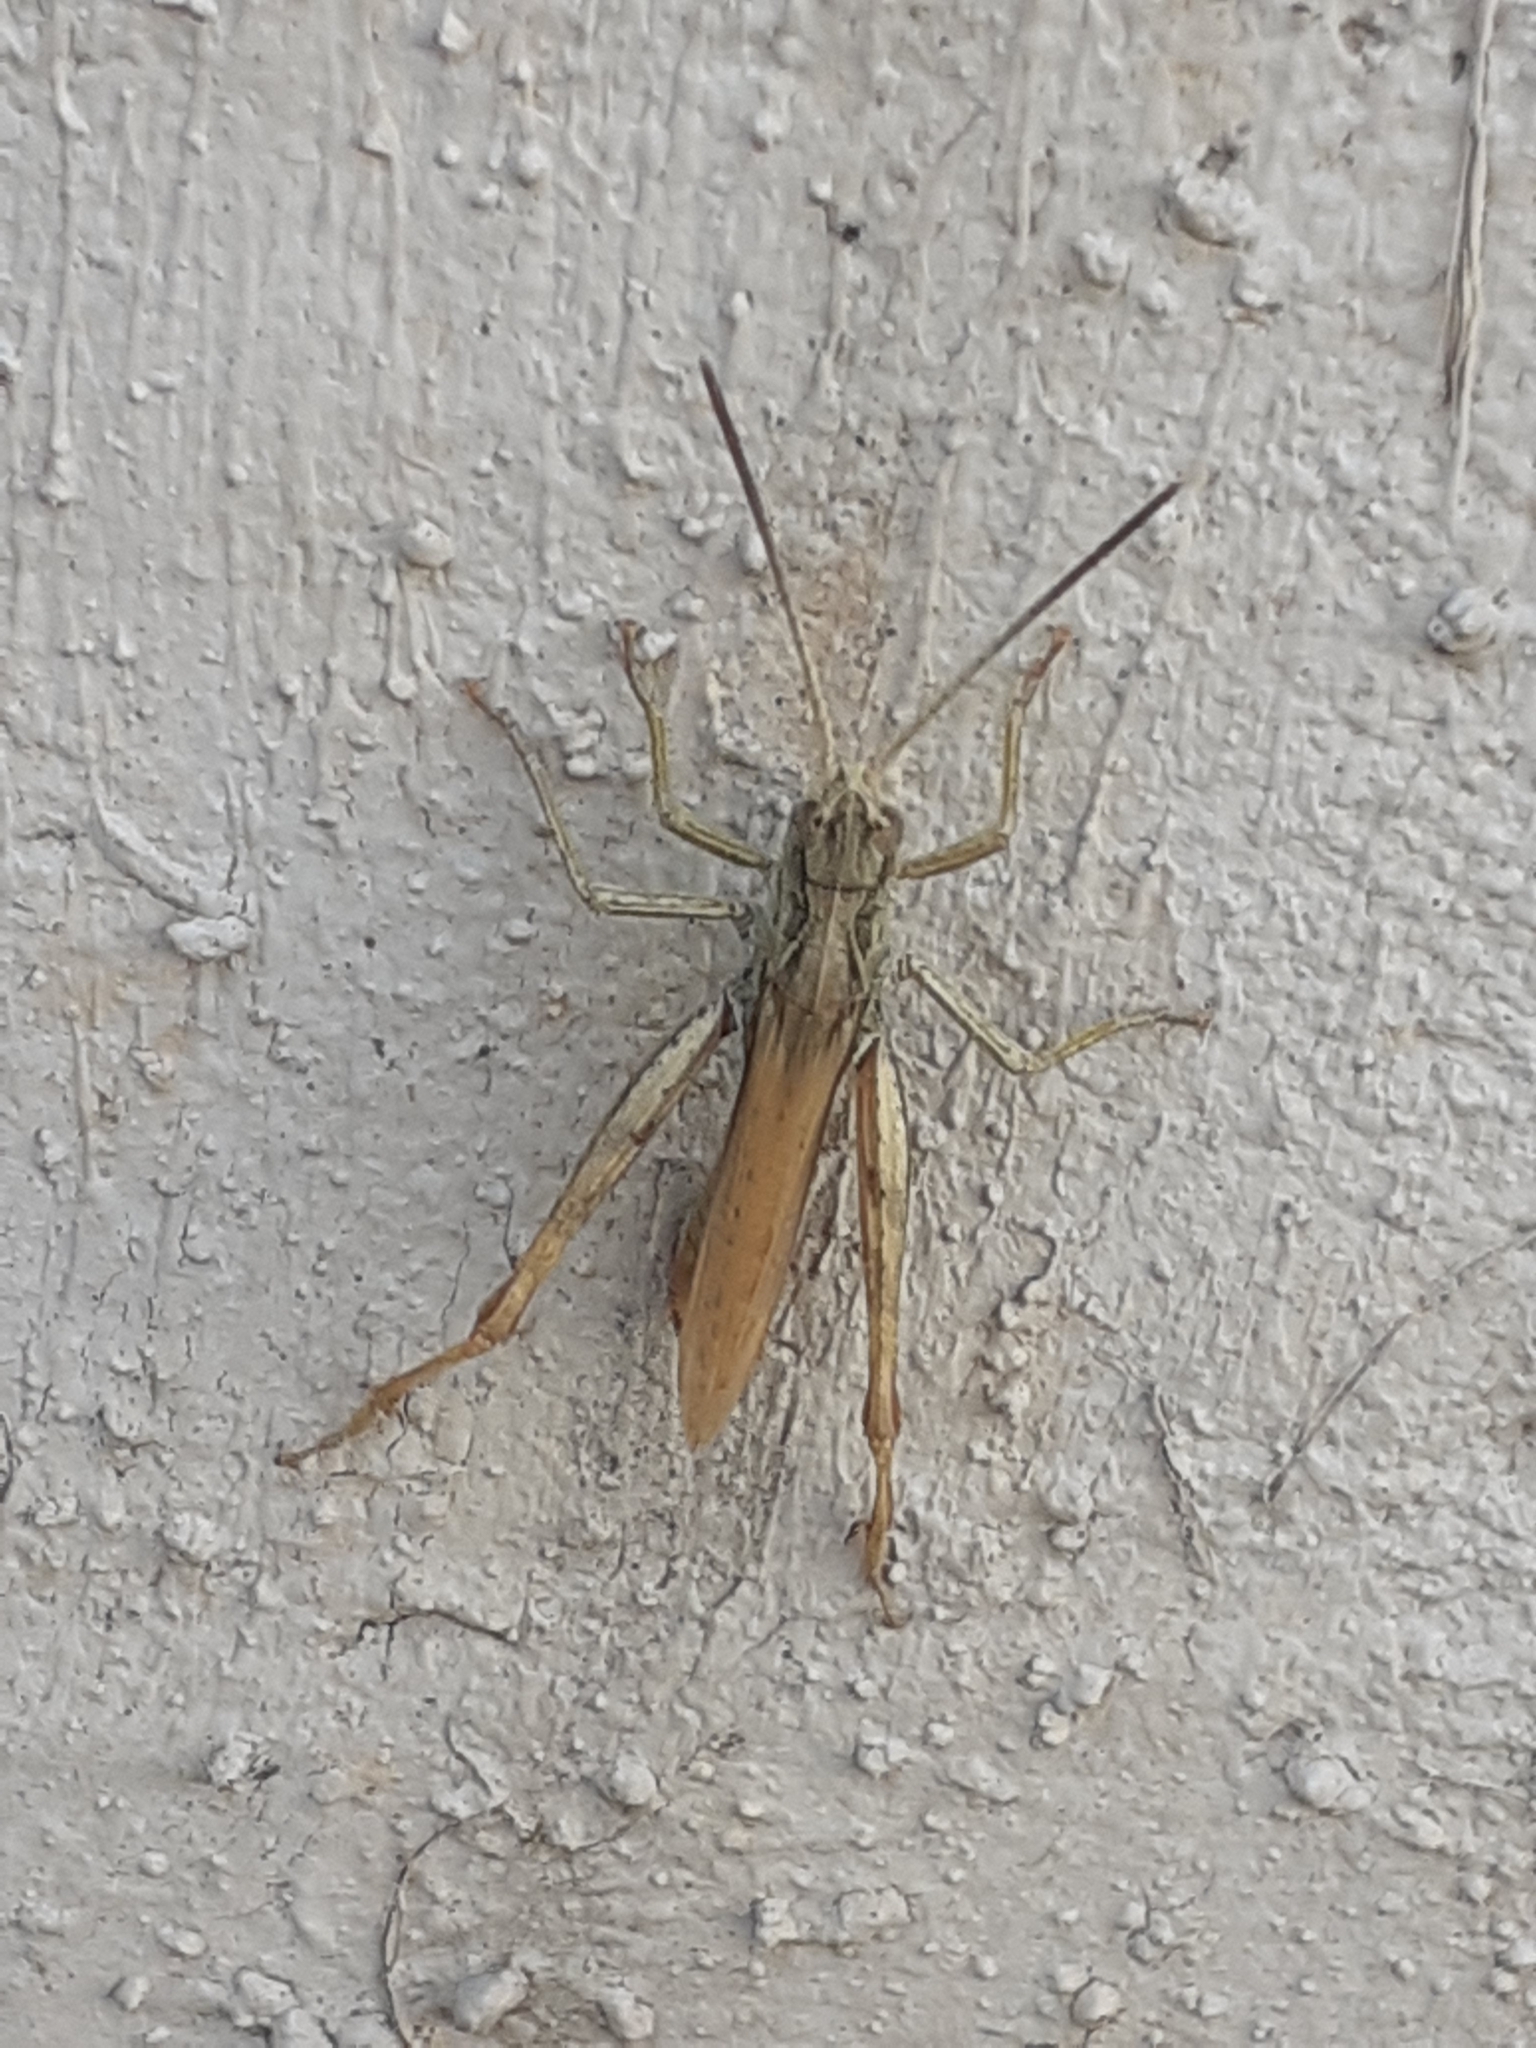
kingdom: Animalia
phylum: Arthropoda
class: Insecta
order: Orthoptera
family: Acrididae
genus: Chorthippus
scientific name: Chorthippus apricarius
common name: Upland field grasshopper
